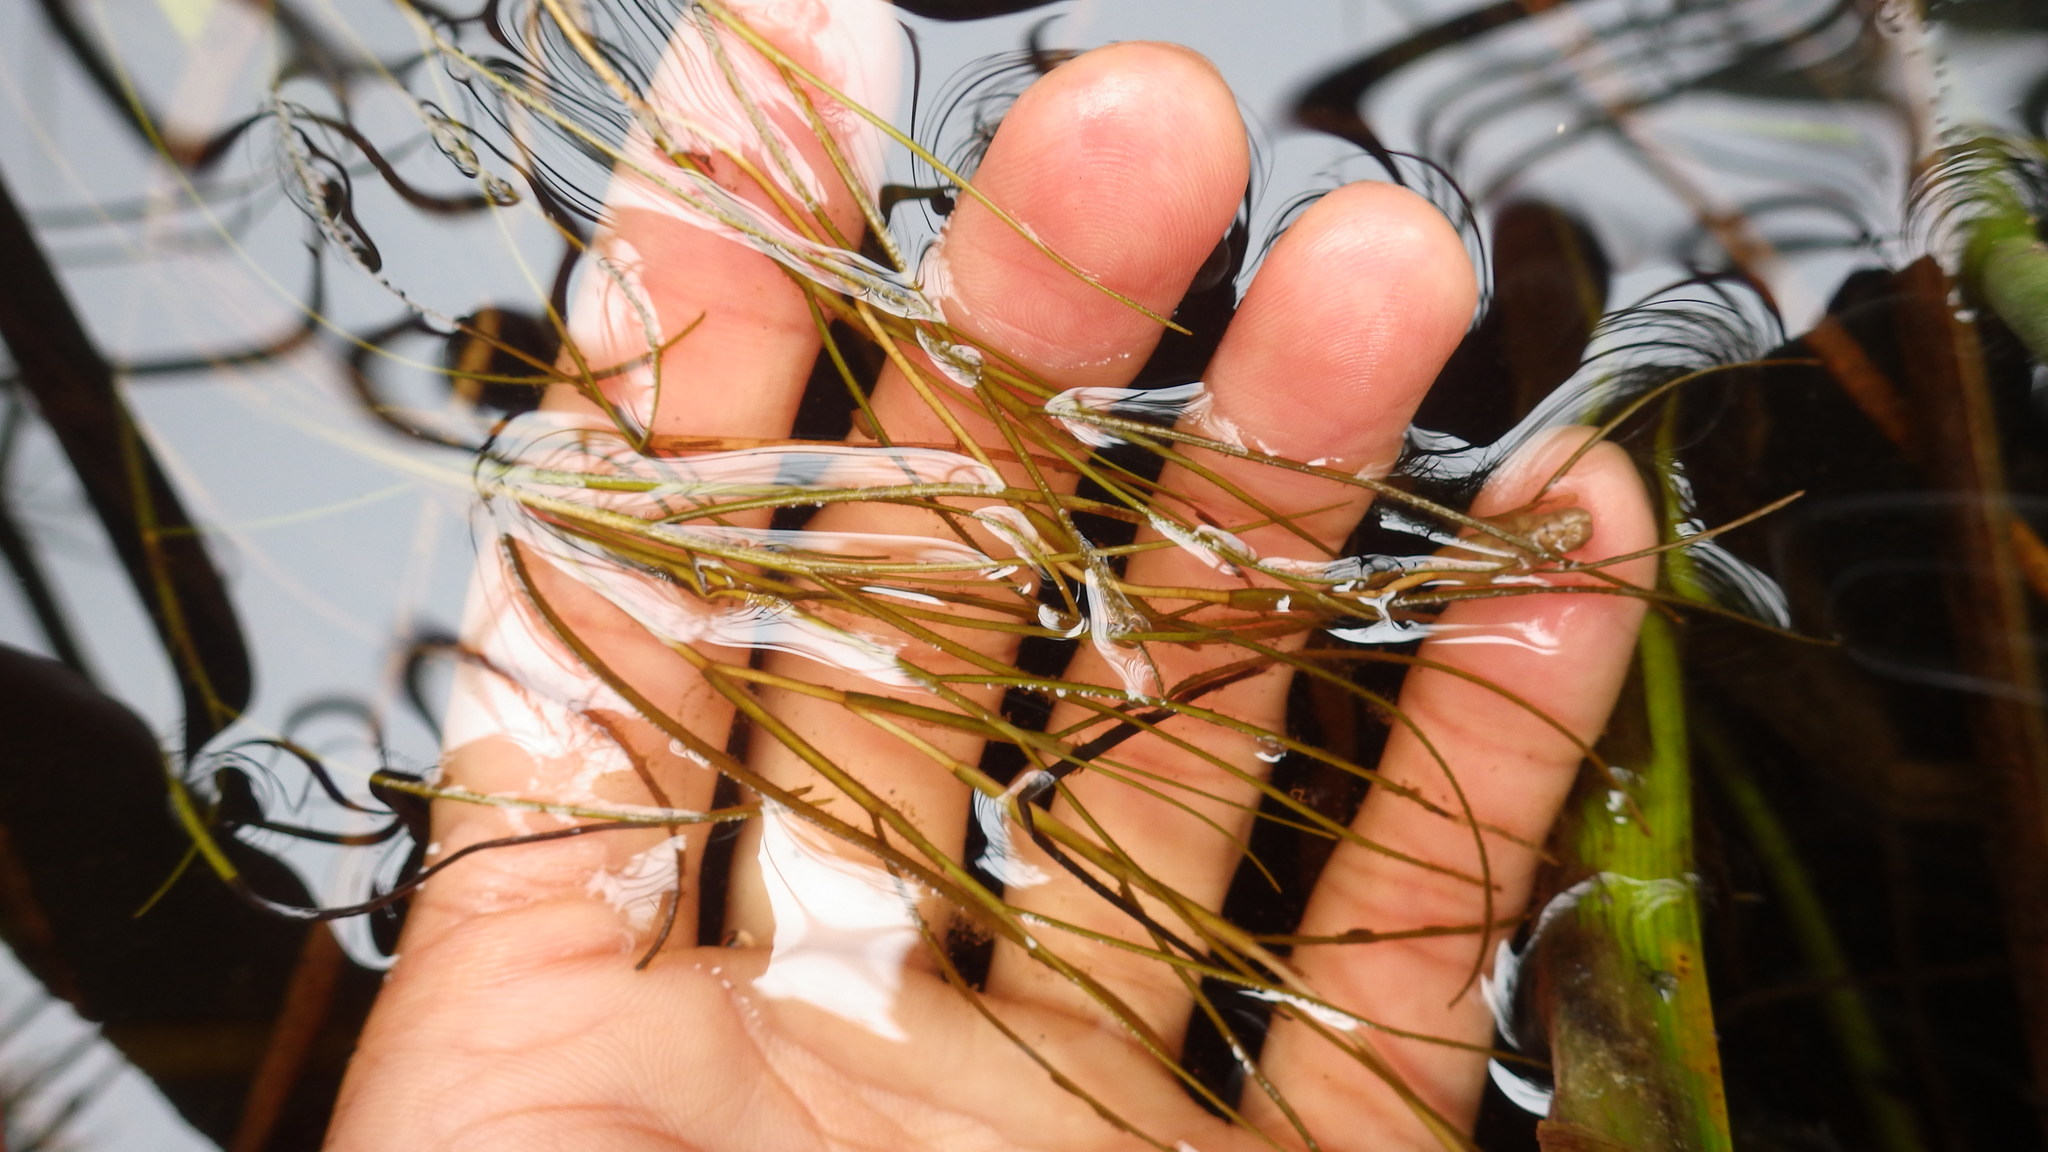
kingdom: Plantae
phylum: Tracheophyta
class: Liliopsida
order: Alismatales
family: Potamogetonaceae
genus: Stuckenia
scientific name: Stuckenia pectinata
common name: Sago pondweed
